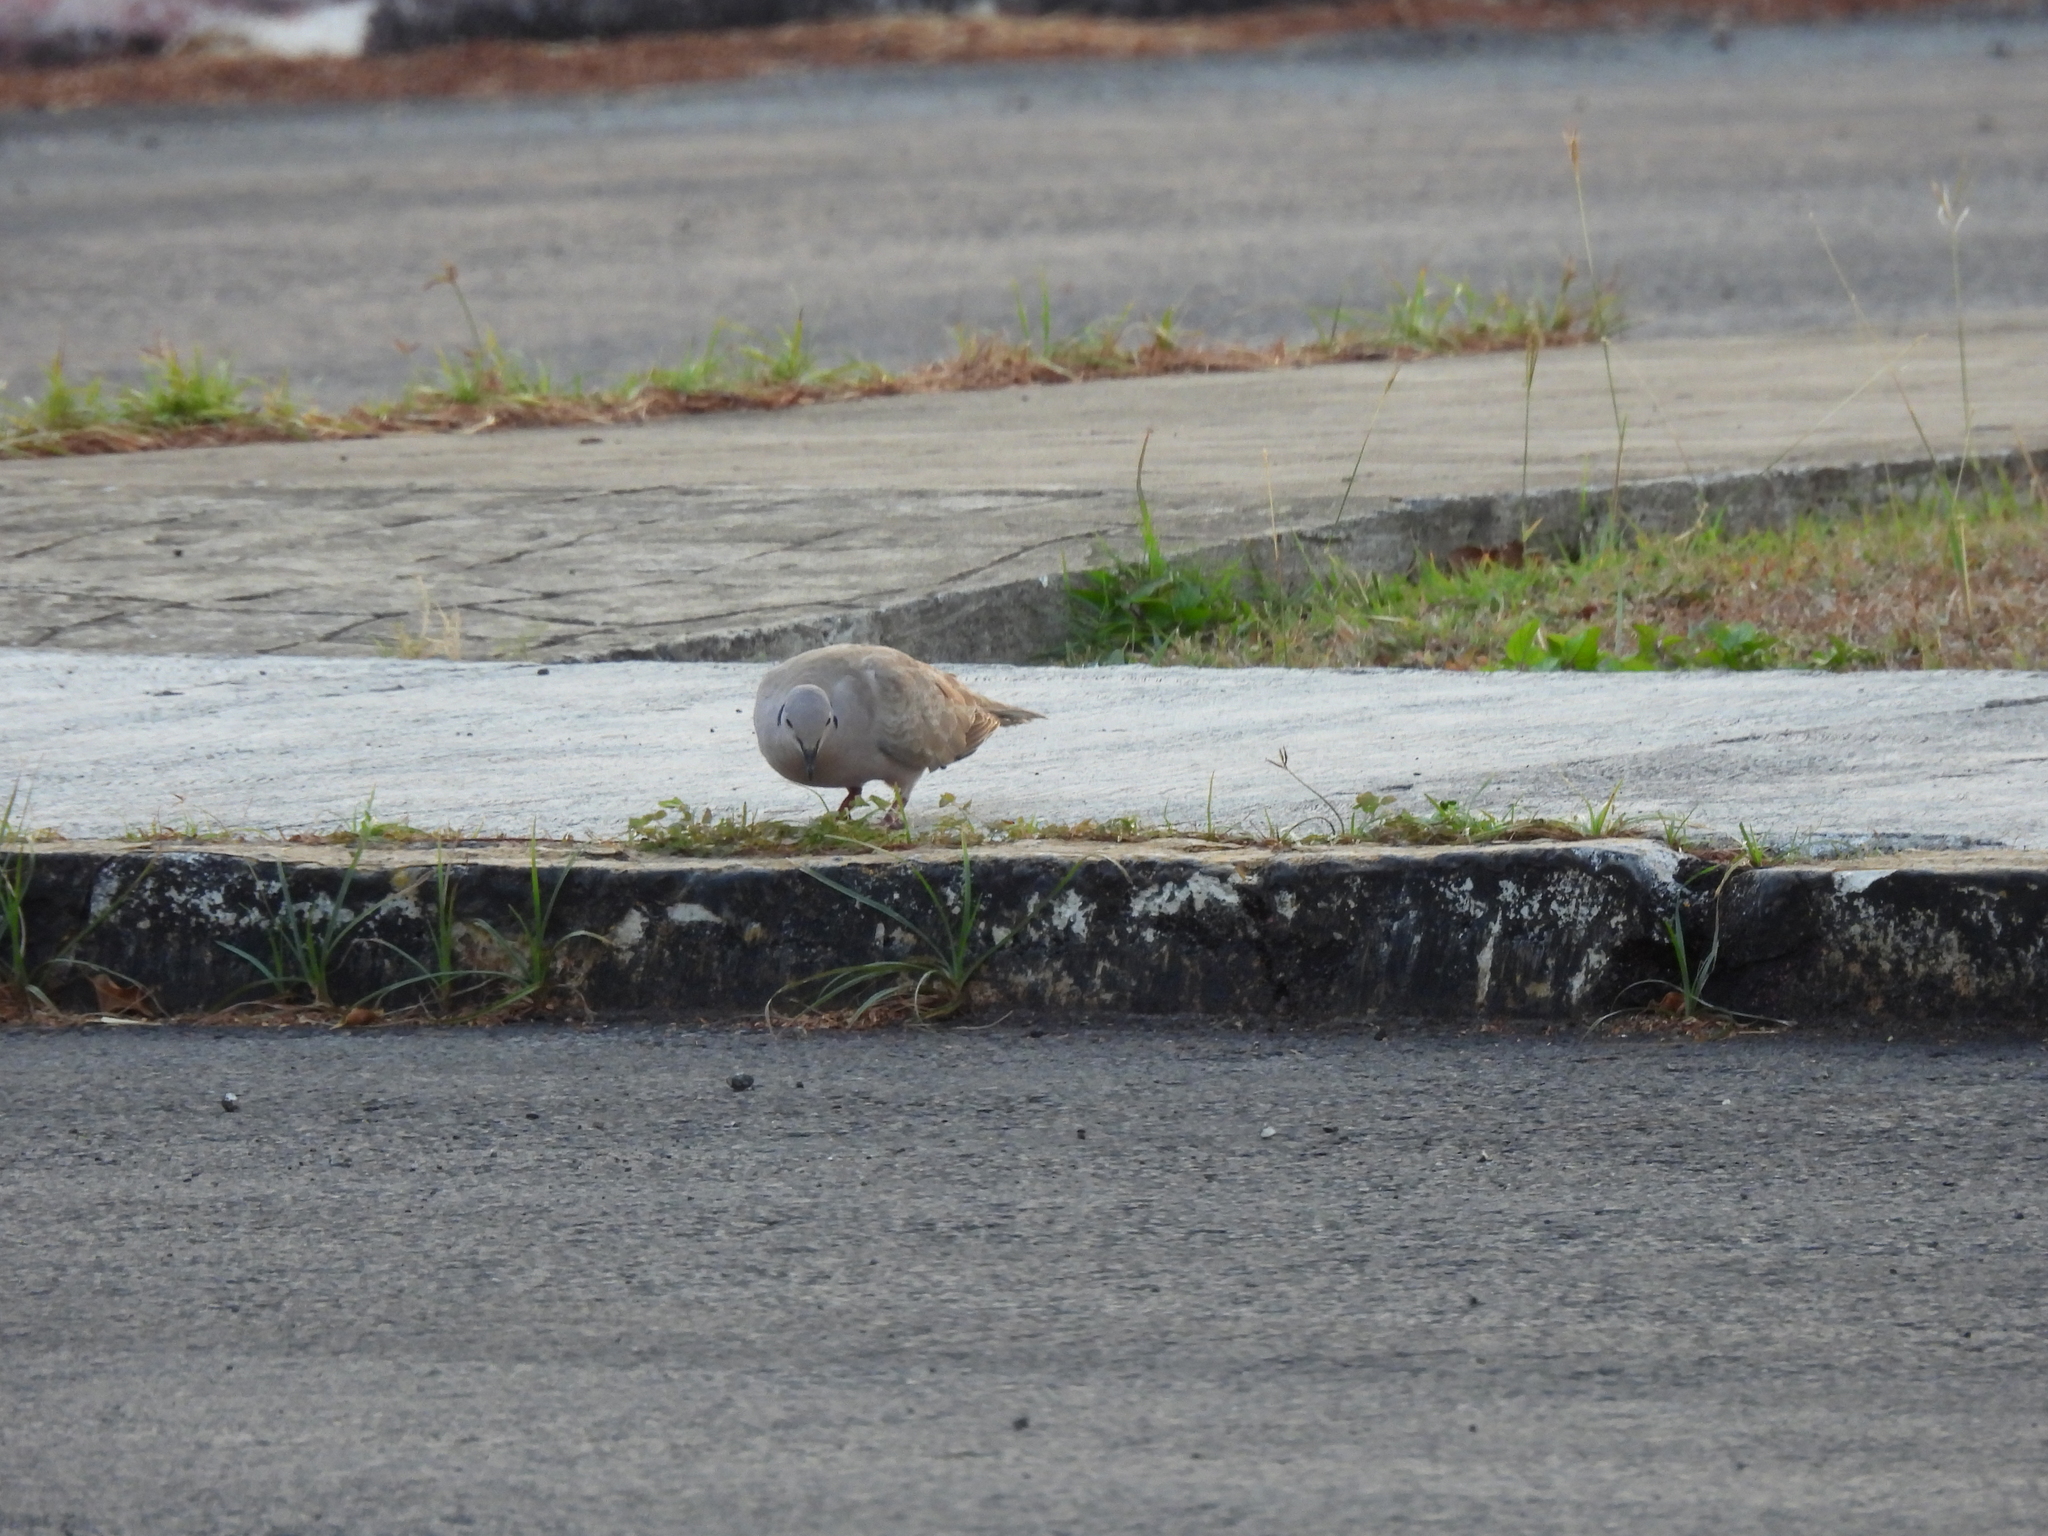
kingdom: Animalia
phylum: Chordata
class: Aves
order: Columbiformes
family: Columbidae
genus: Streptopelia
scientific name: Streptopelia decaocto
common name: Eurasian collared dove
